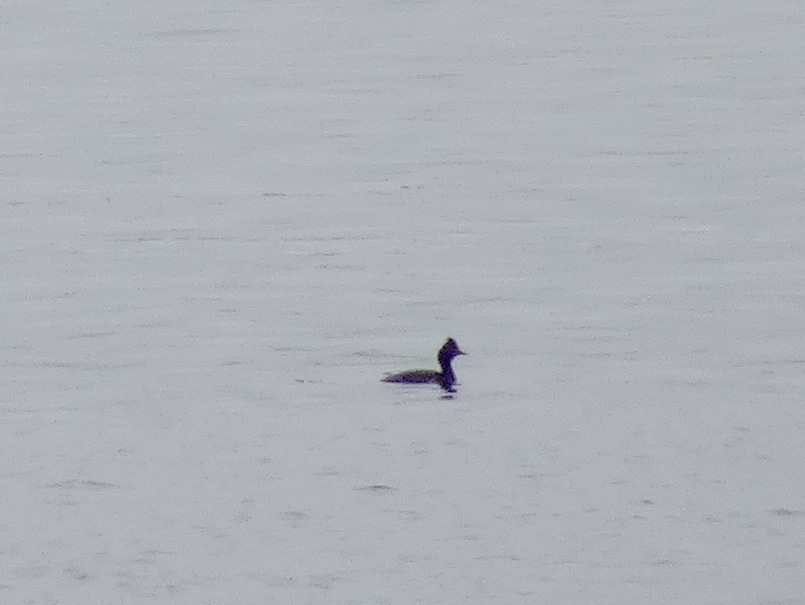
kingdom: Animalia
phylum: Chordata
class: Aves
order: Podicipediformes
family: Podicipedidae
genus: Podiceps
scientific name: Podiceps nigricollis
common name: Black-necked grebe
